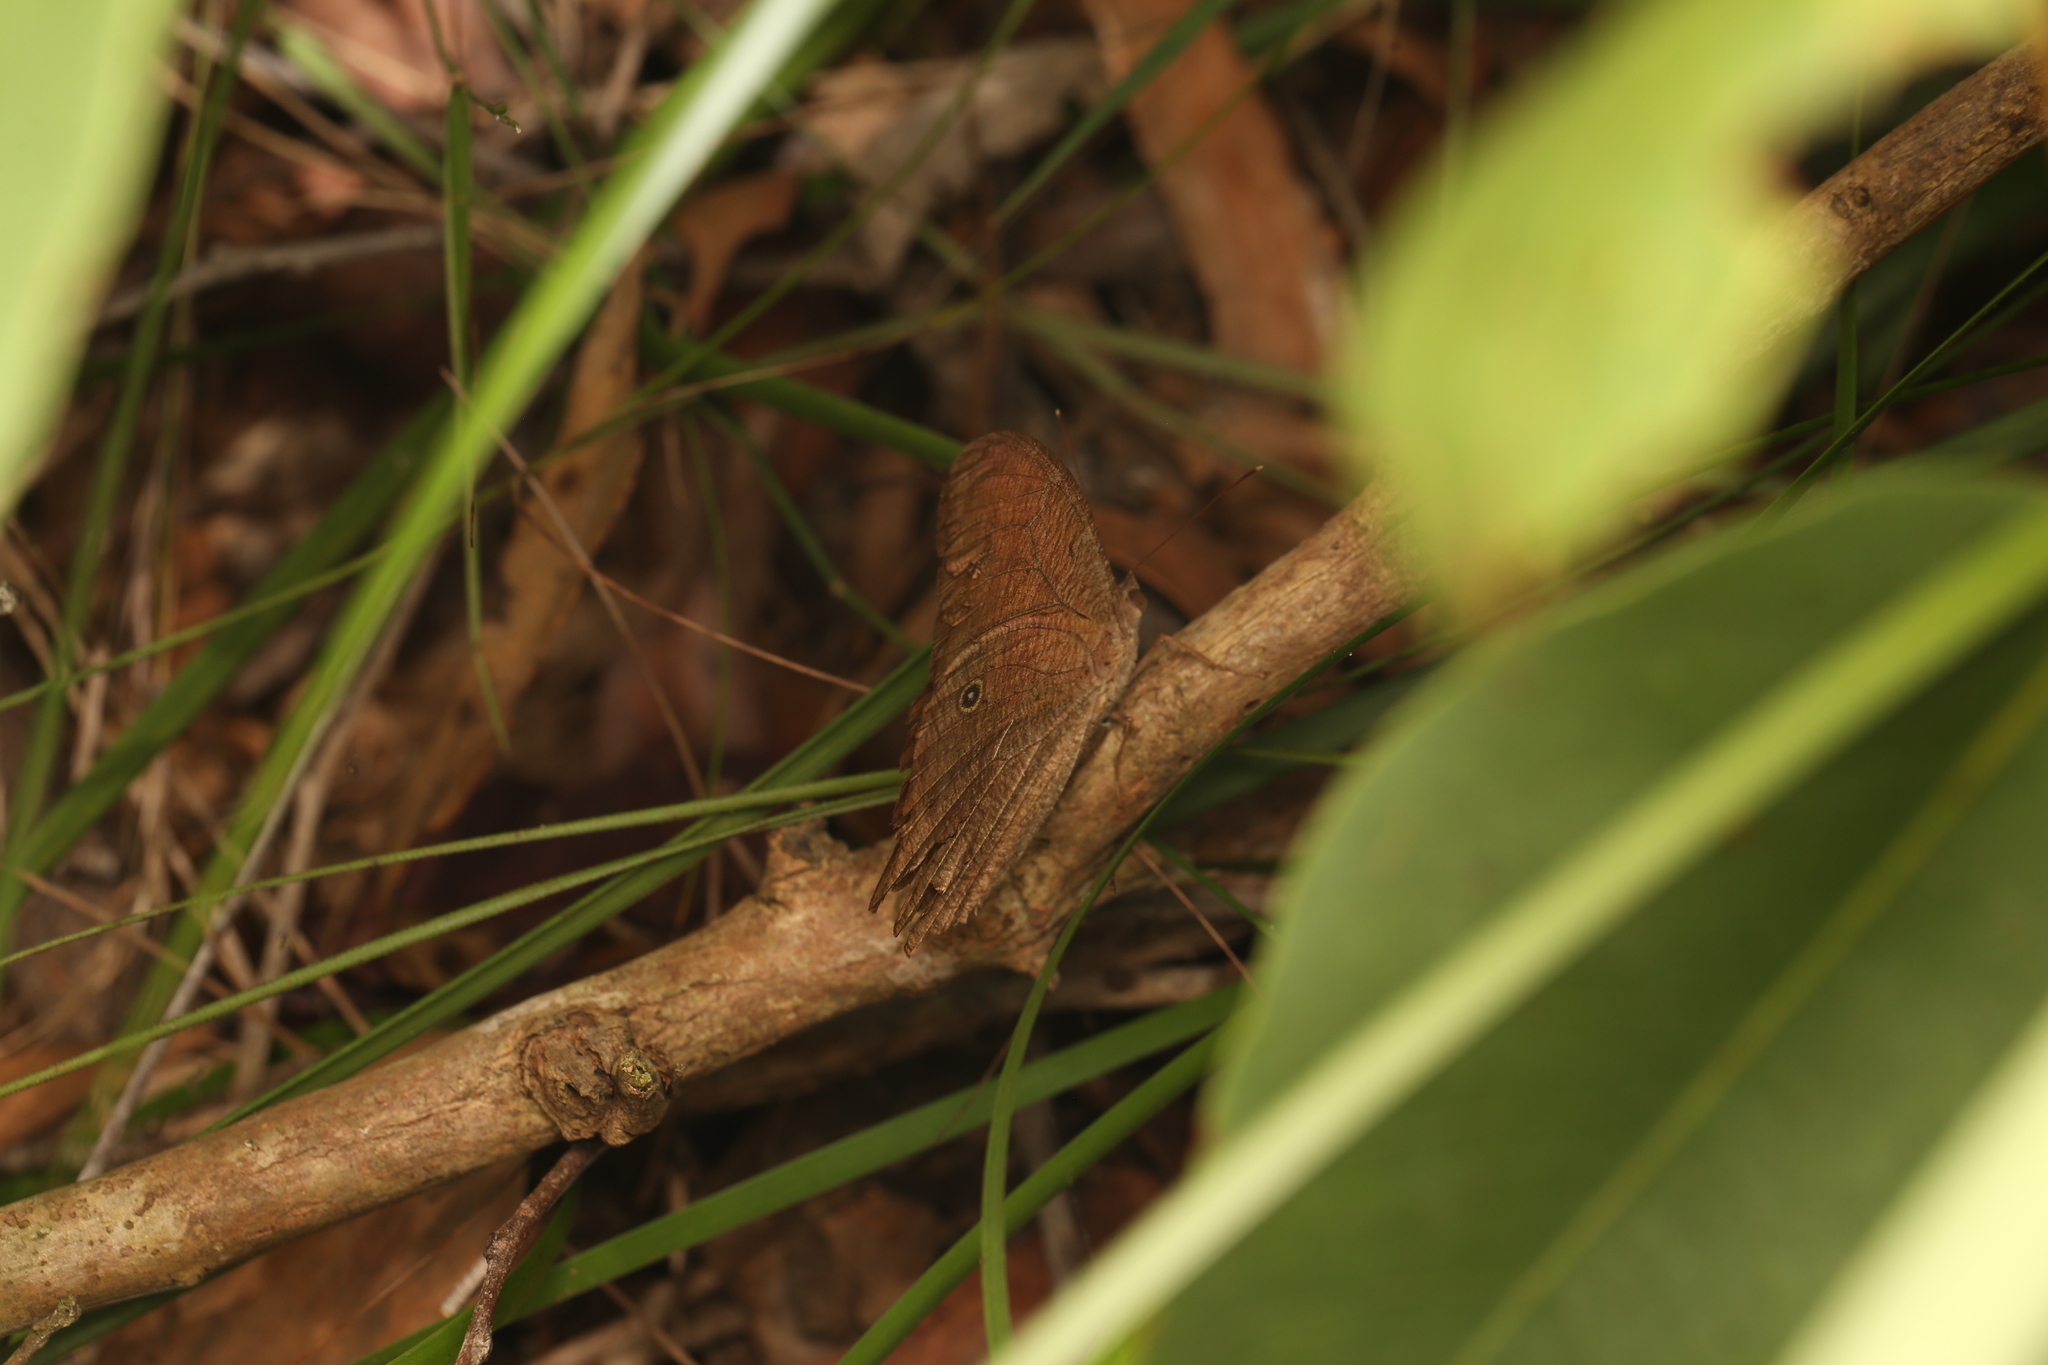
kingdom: Animalia
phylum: Arthropoda
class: Insecta
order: Lepidoptera
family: Nymphalidae
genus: Melanitis
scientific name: Melanitis leda
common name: Twilight brown
